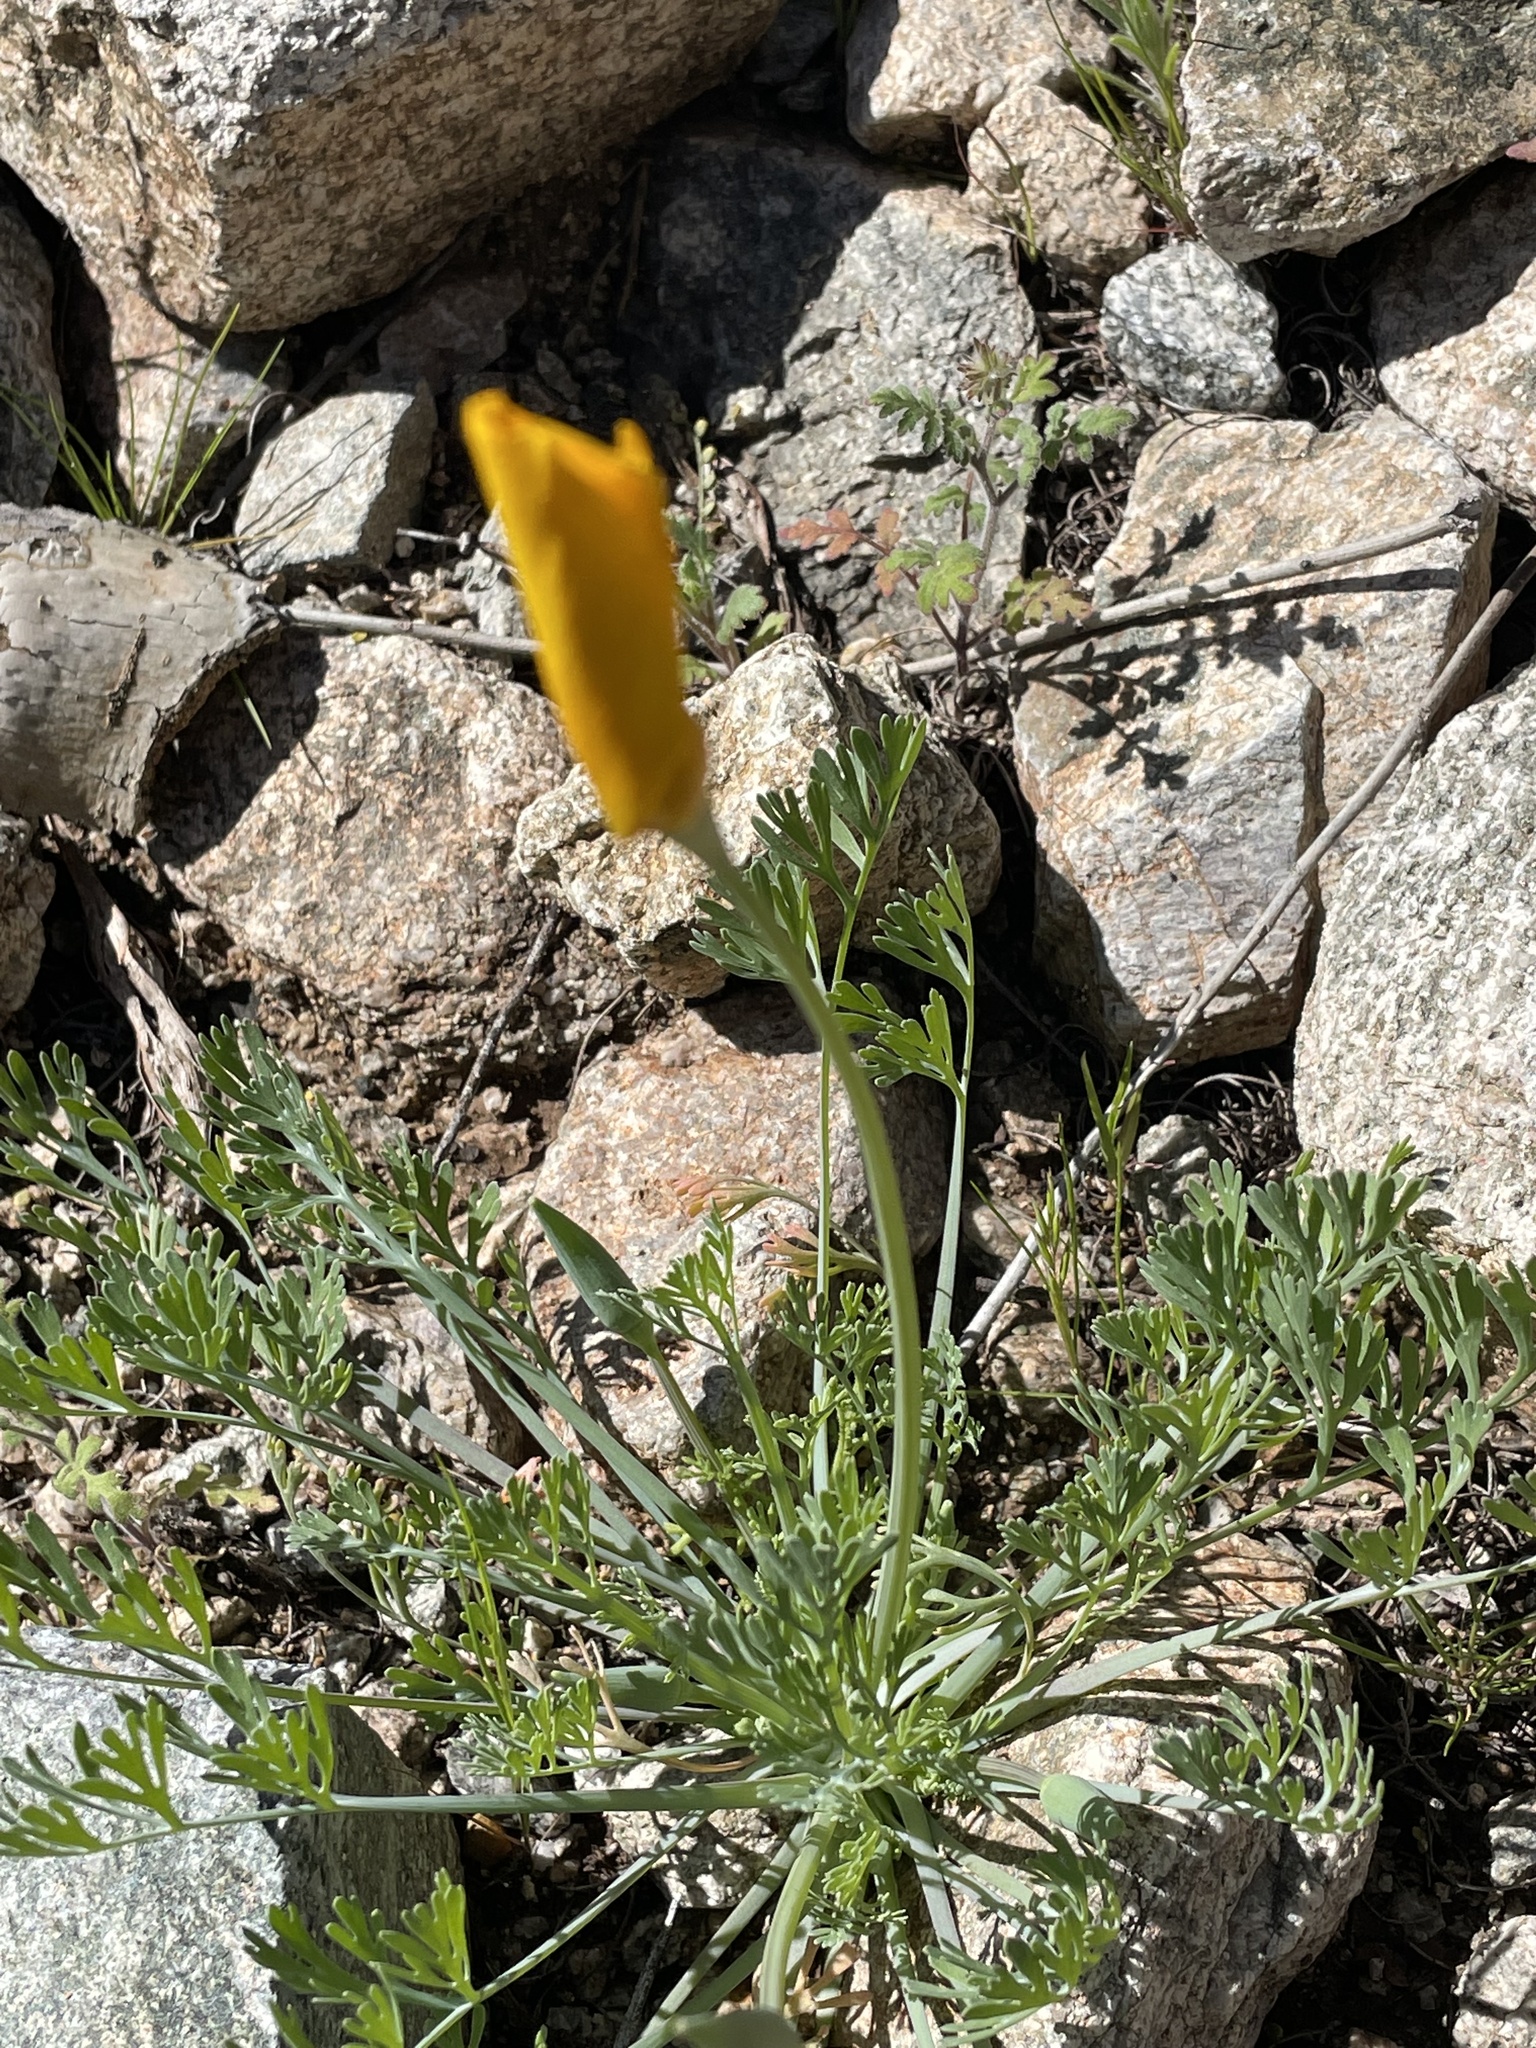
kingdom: Plantae
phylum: Tracheophyta
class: Magnoliopsida
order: Ranunculales
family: Papaveraceae
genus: Eschscholzia
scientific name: Eschscholzia californica
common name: California poppy
